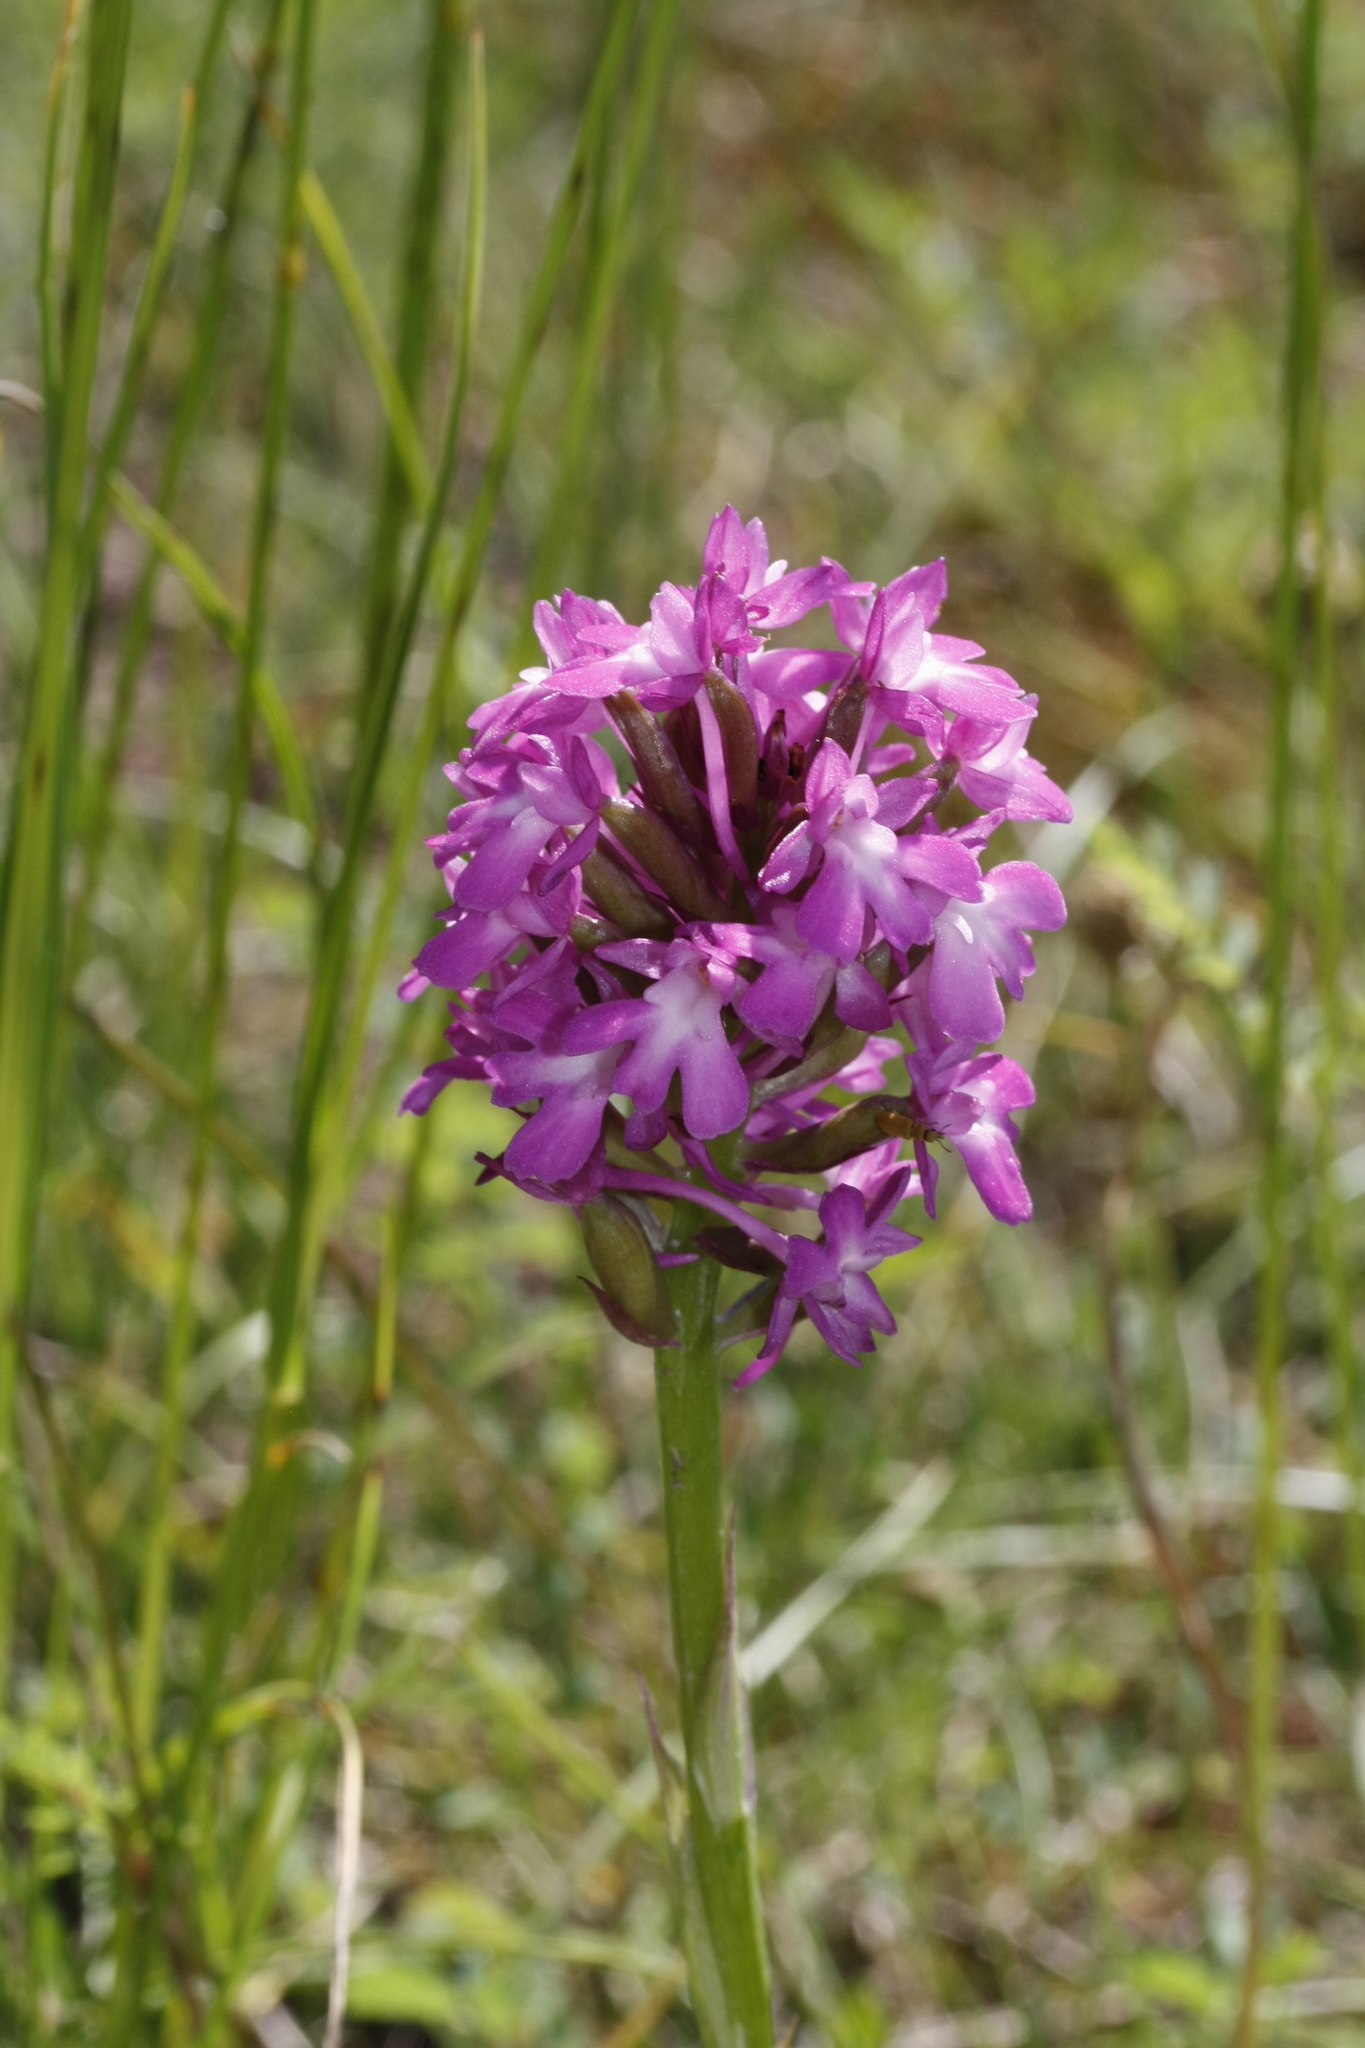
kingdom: Plantae
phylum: Tracheophyta
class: Liliopsida
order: Asparagales
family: Orchidaceae
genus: Anacamptis
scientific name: Anacamptis pyramidalis
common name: Pyramidal orchid
